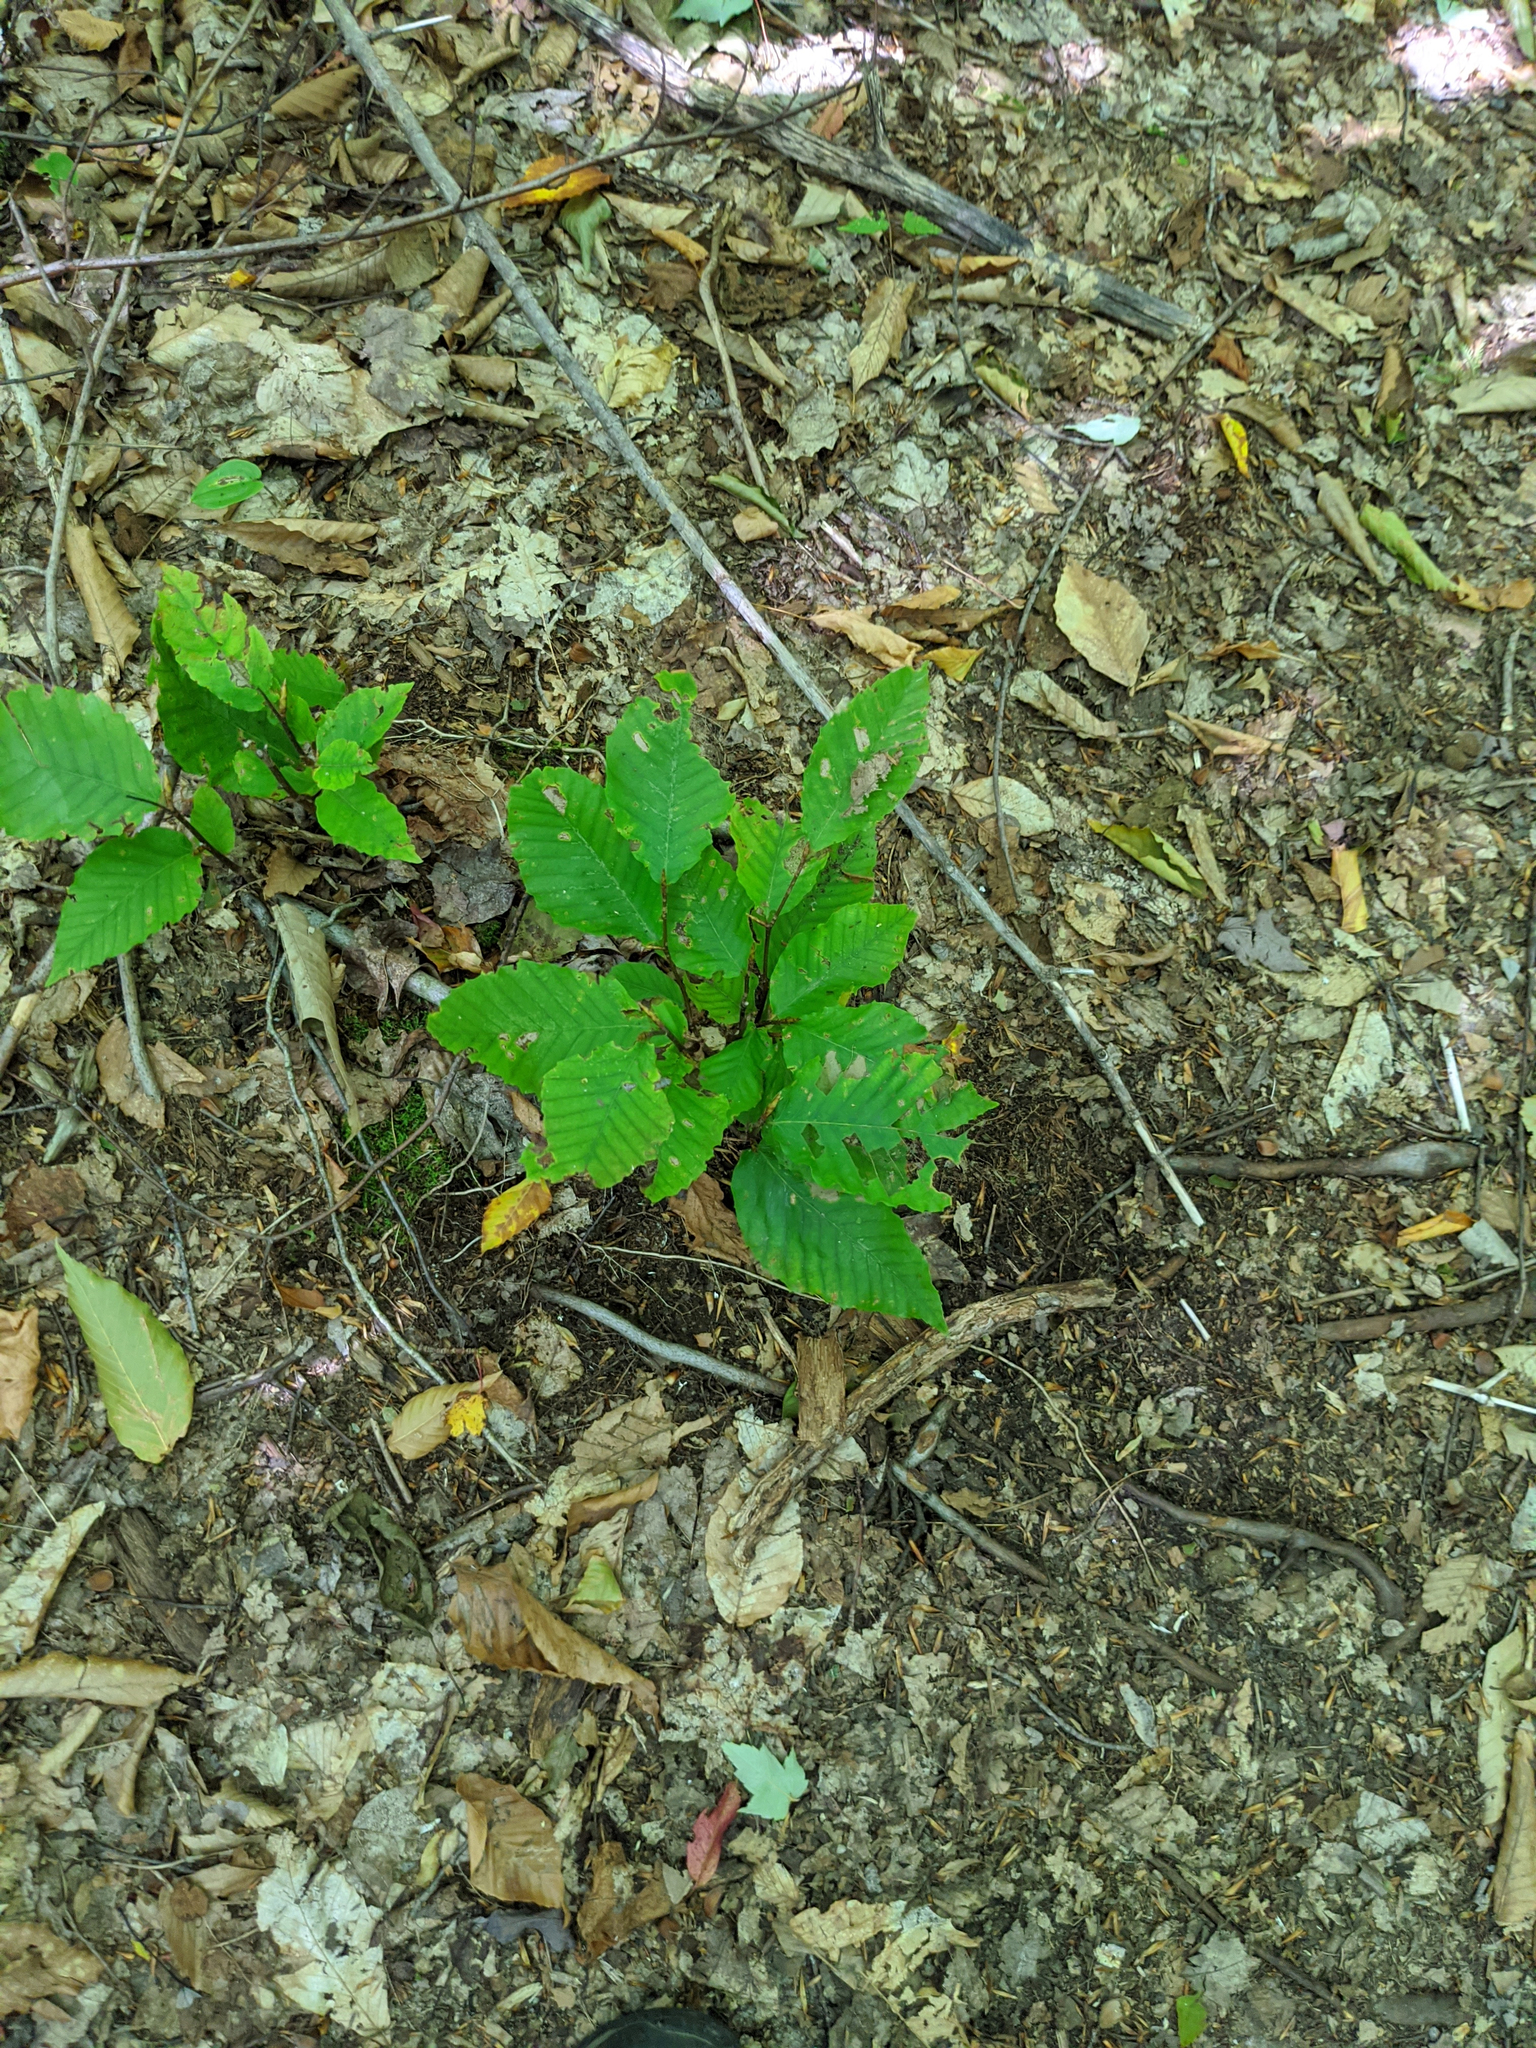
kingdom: Plantae
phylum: Tracheophyta
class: Magnoliopsida
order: Fagales
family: Fagaceae
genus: Fagus
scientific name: Fagus grandifolia
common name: American beech
